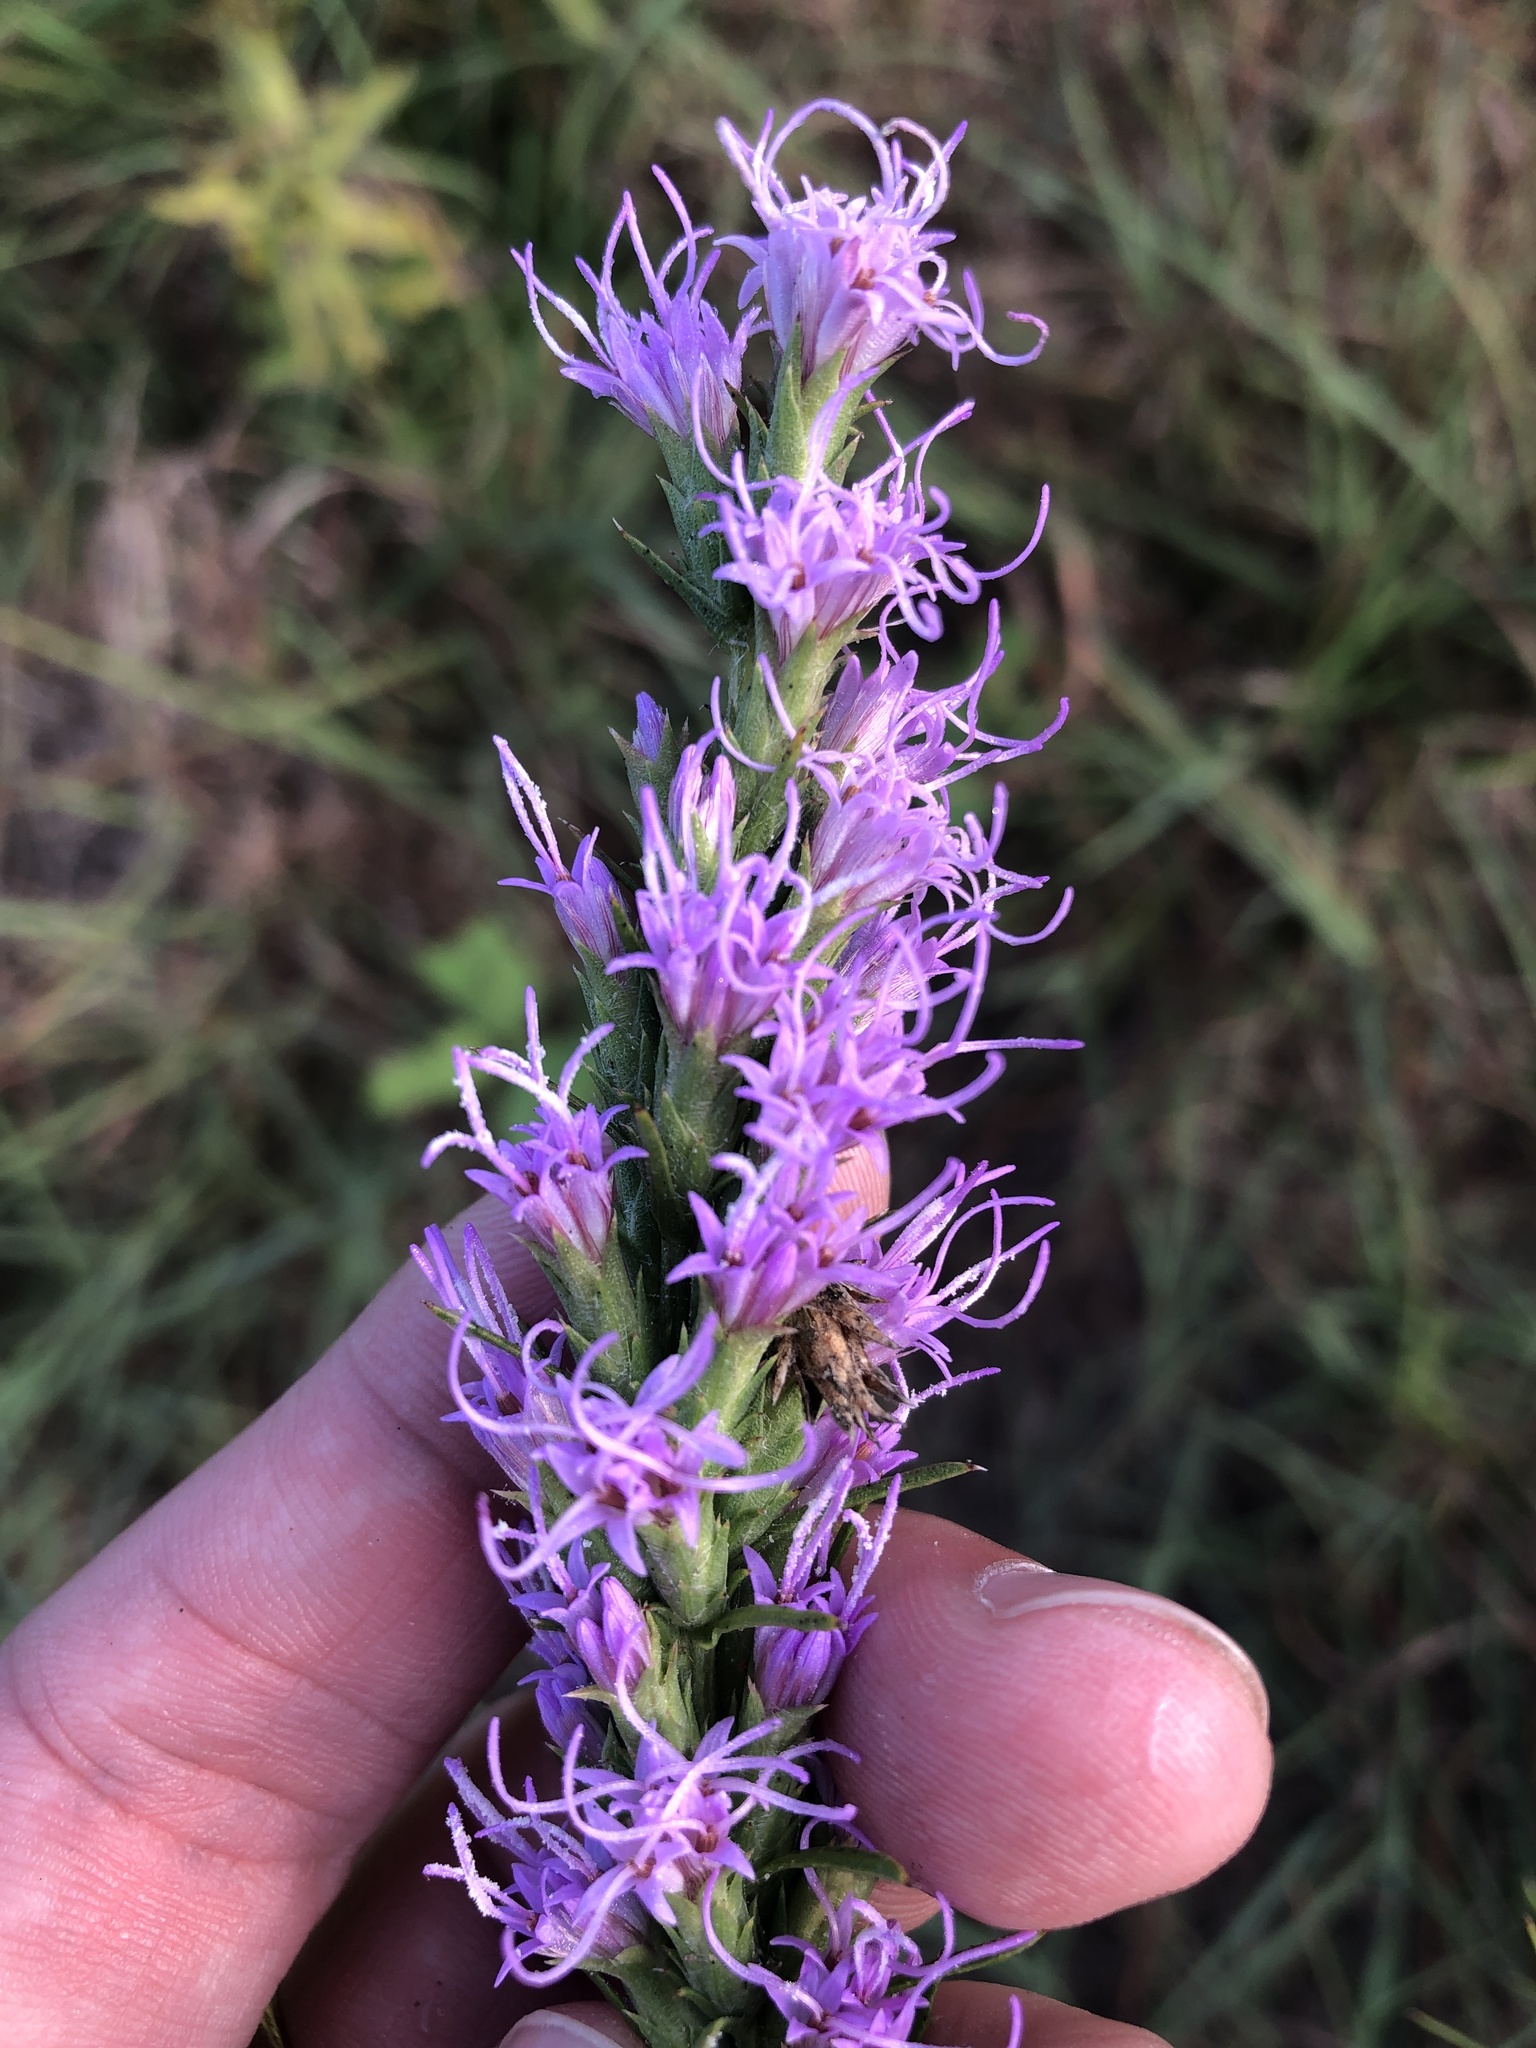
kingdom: Plantae
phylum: Tracheophyta
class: Magnoliopsida
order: Asterales
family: Asteraceae
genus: Liatris
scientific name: Liatris punctata
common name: Dotted gayfeather
